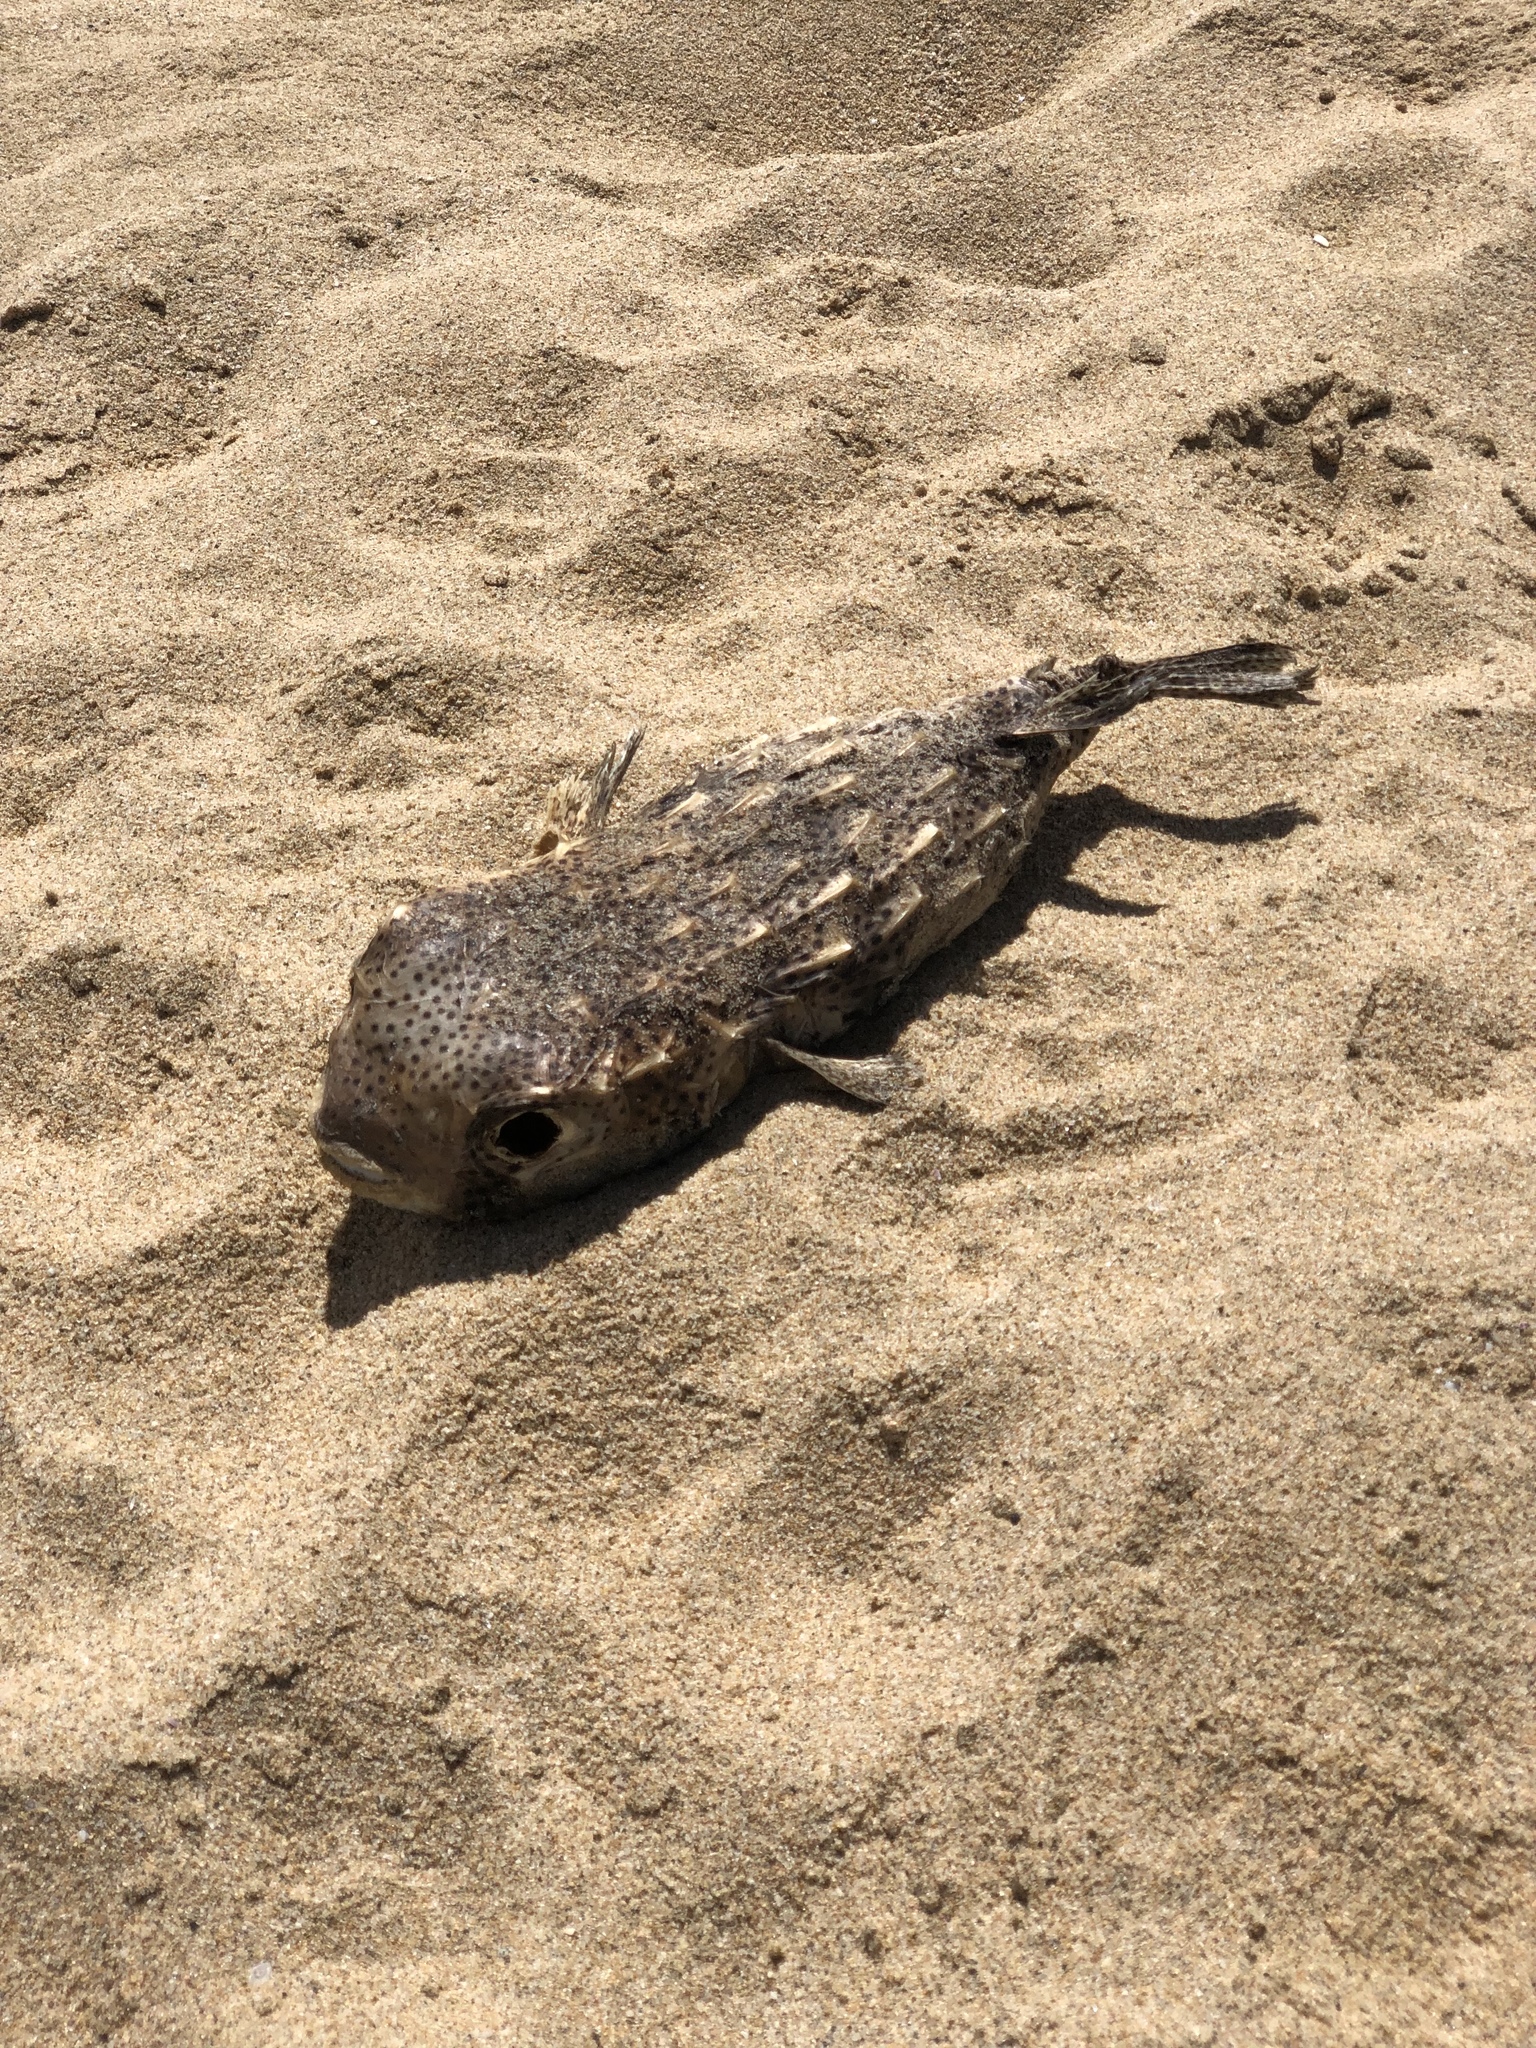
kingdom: Animalia
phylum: Chordata
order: Tetraodontiformes
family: Diodontidae
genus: Chilomycterus
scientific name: Chilomycterus reticulatus
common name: Spotfin burrfish
